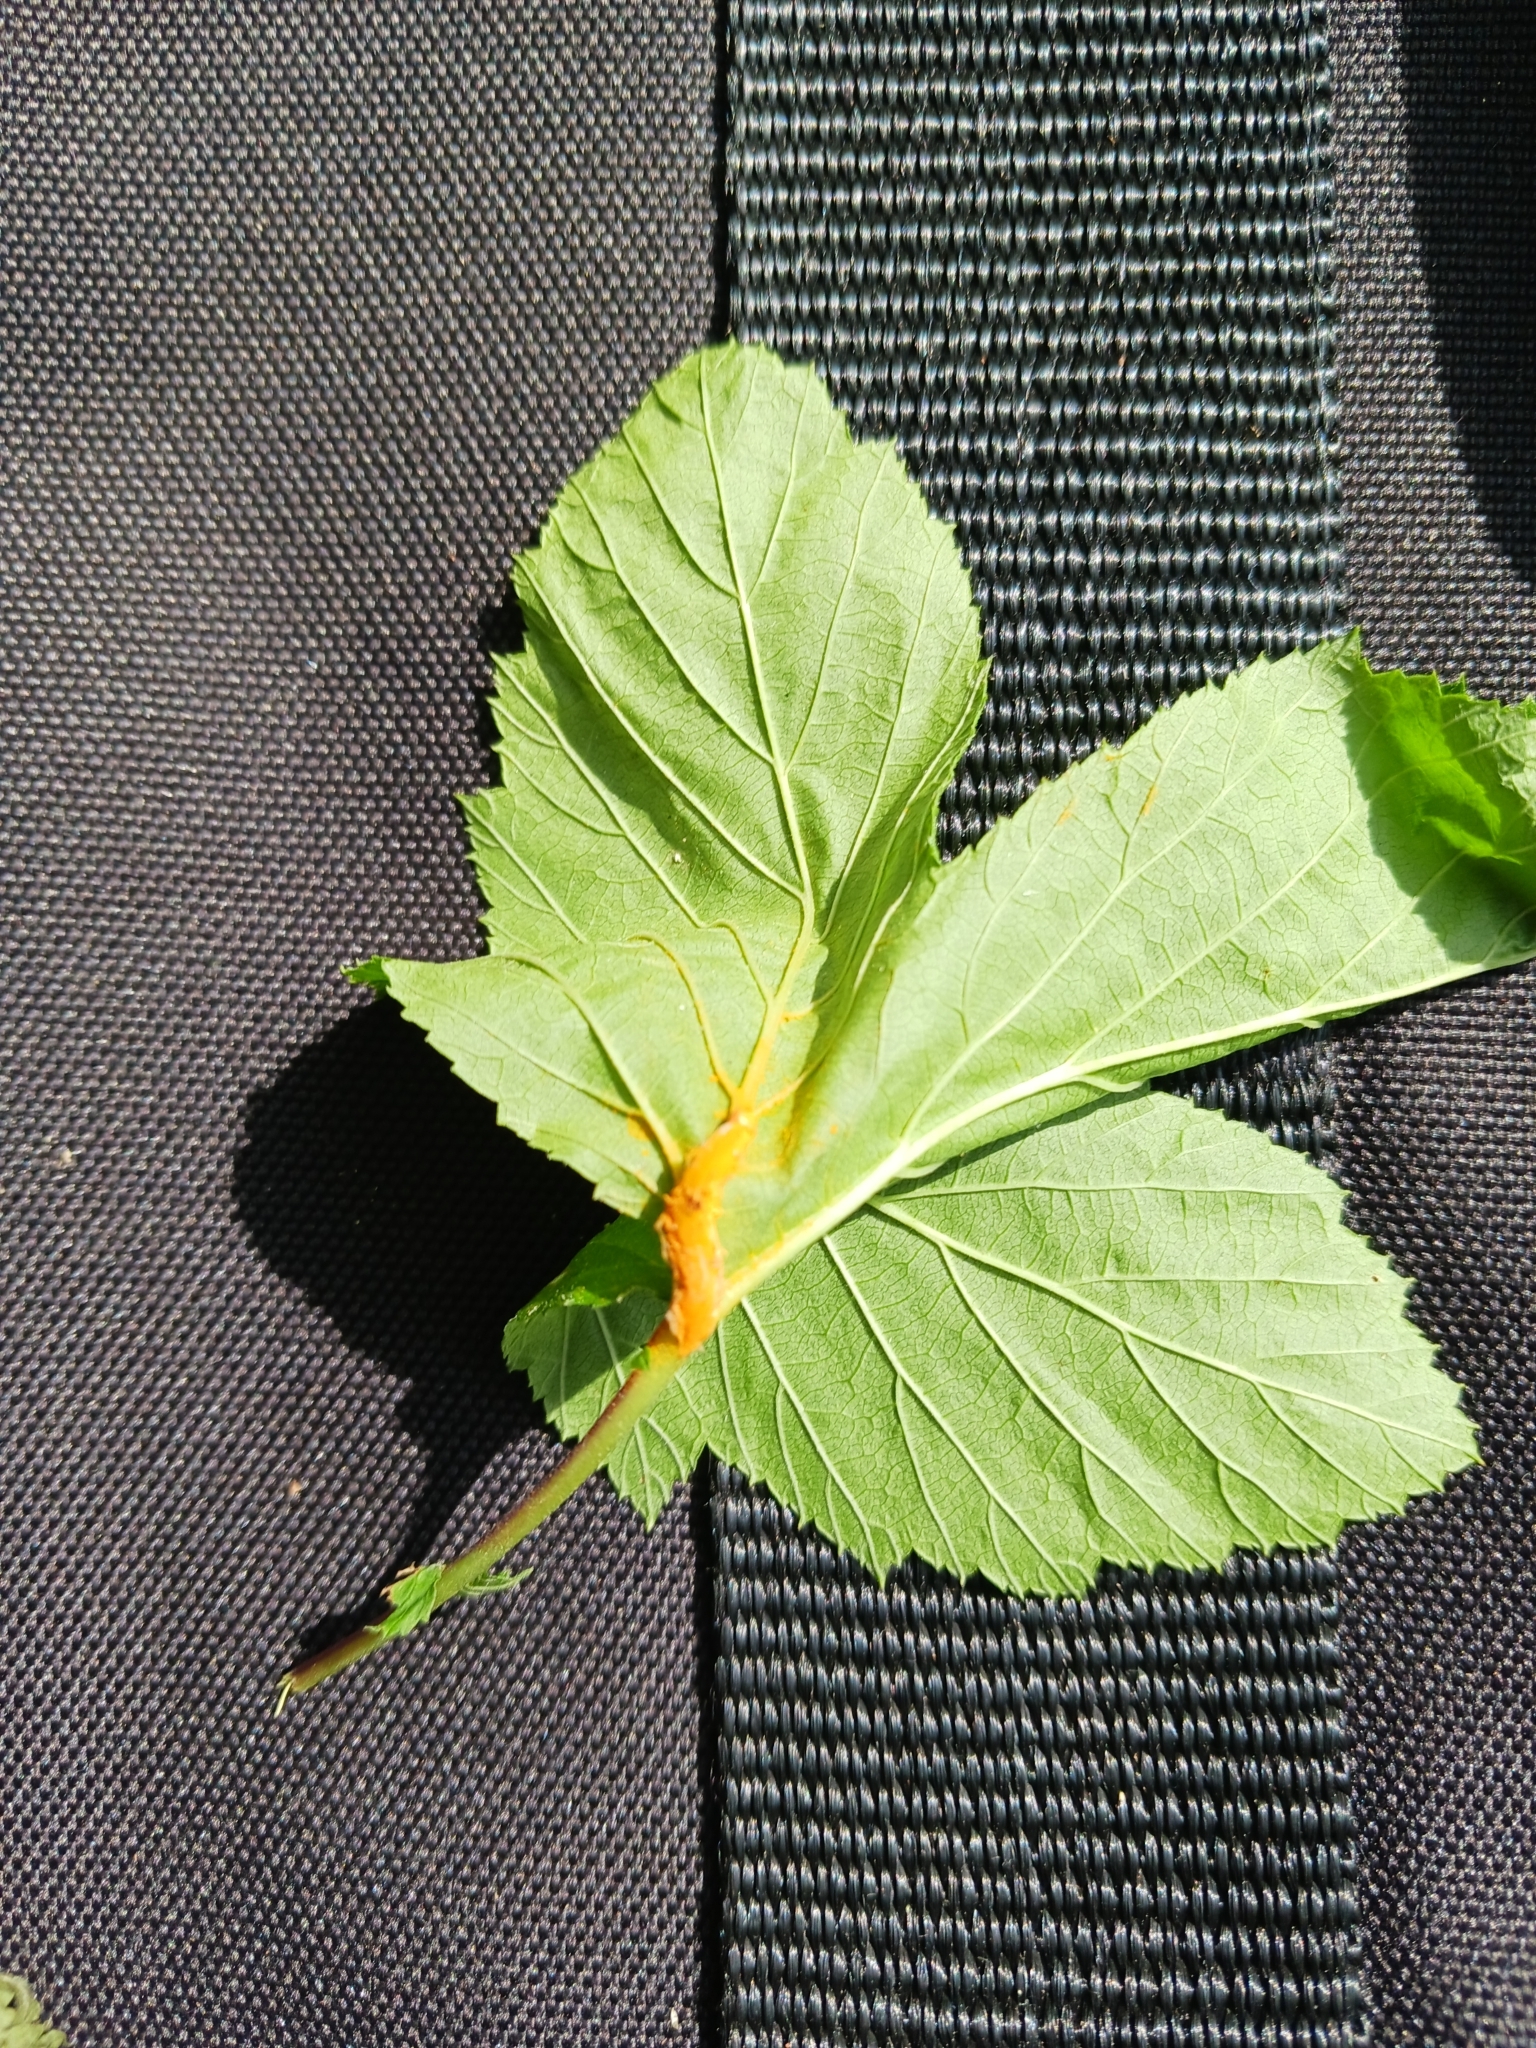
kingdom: Fungi
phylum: Basidiomycota
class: Pucciniomycetes
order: Pucciniales
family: Raveneliaceae
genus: Triphragmium
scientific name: Triphragmium ulmariae
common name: Meadowsweet rust
